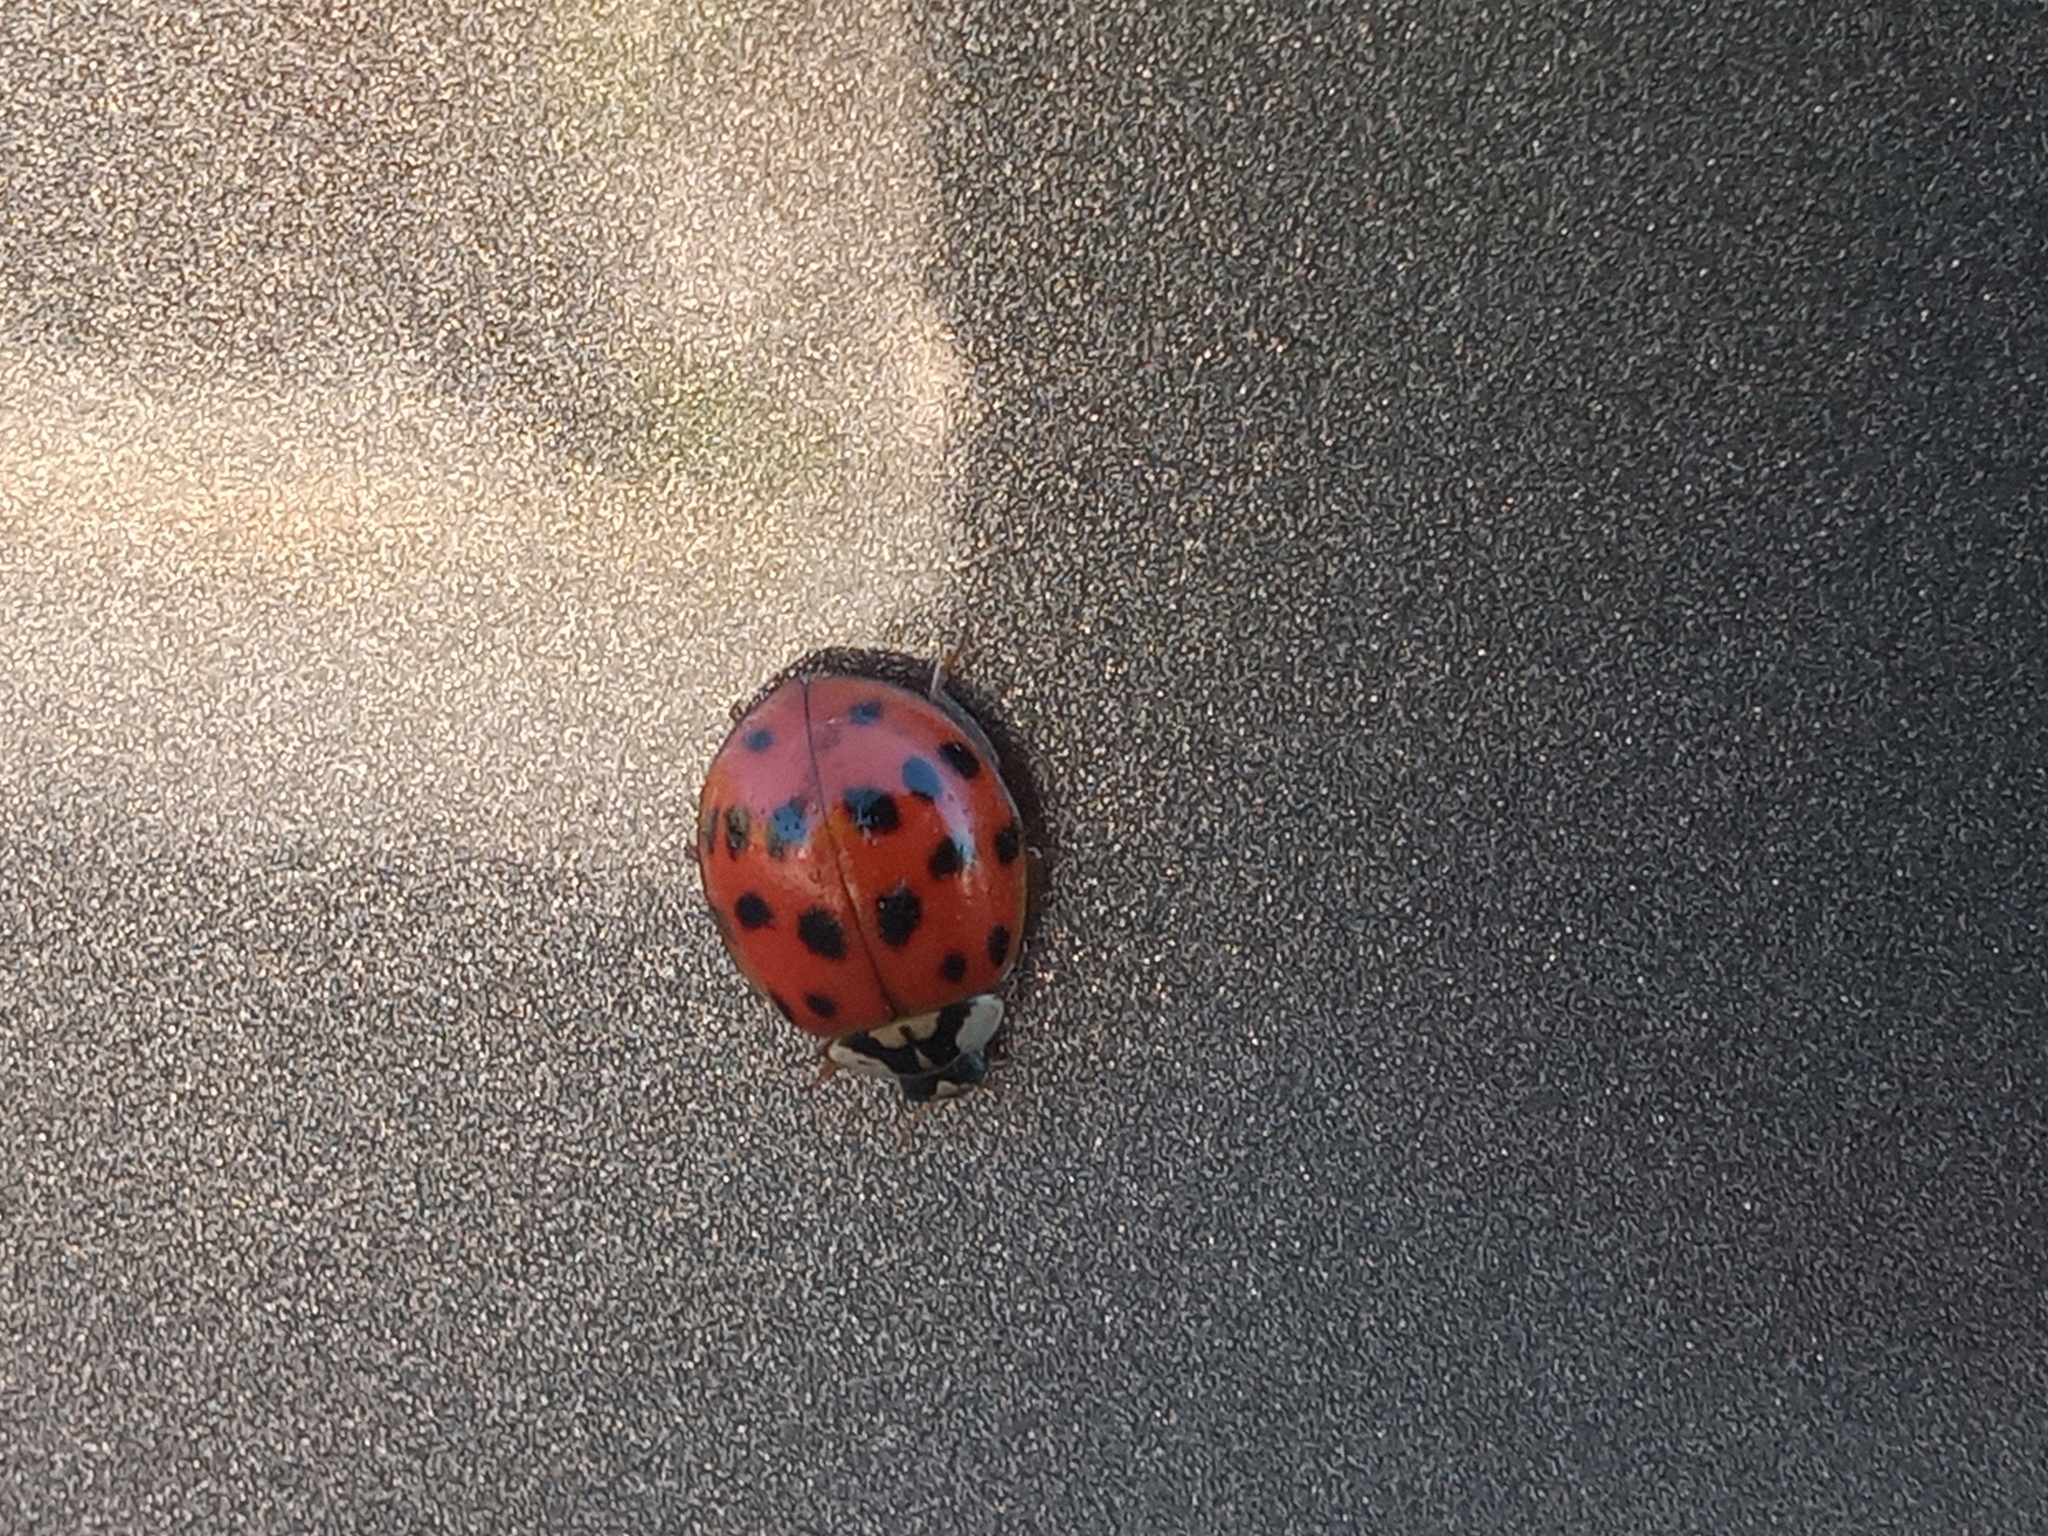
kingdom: Animalia
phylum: Arthropoda
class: Insecta
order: Coleoptera
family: Coccinellidae
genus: Harmonia
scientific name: Harmonia axyridis
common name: Harlequin ladybird
